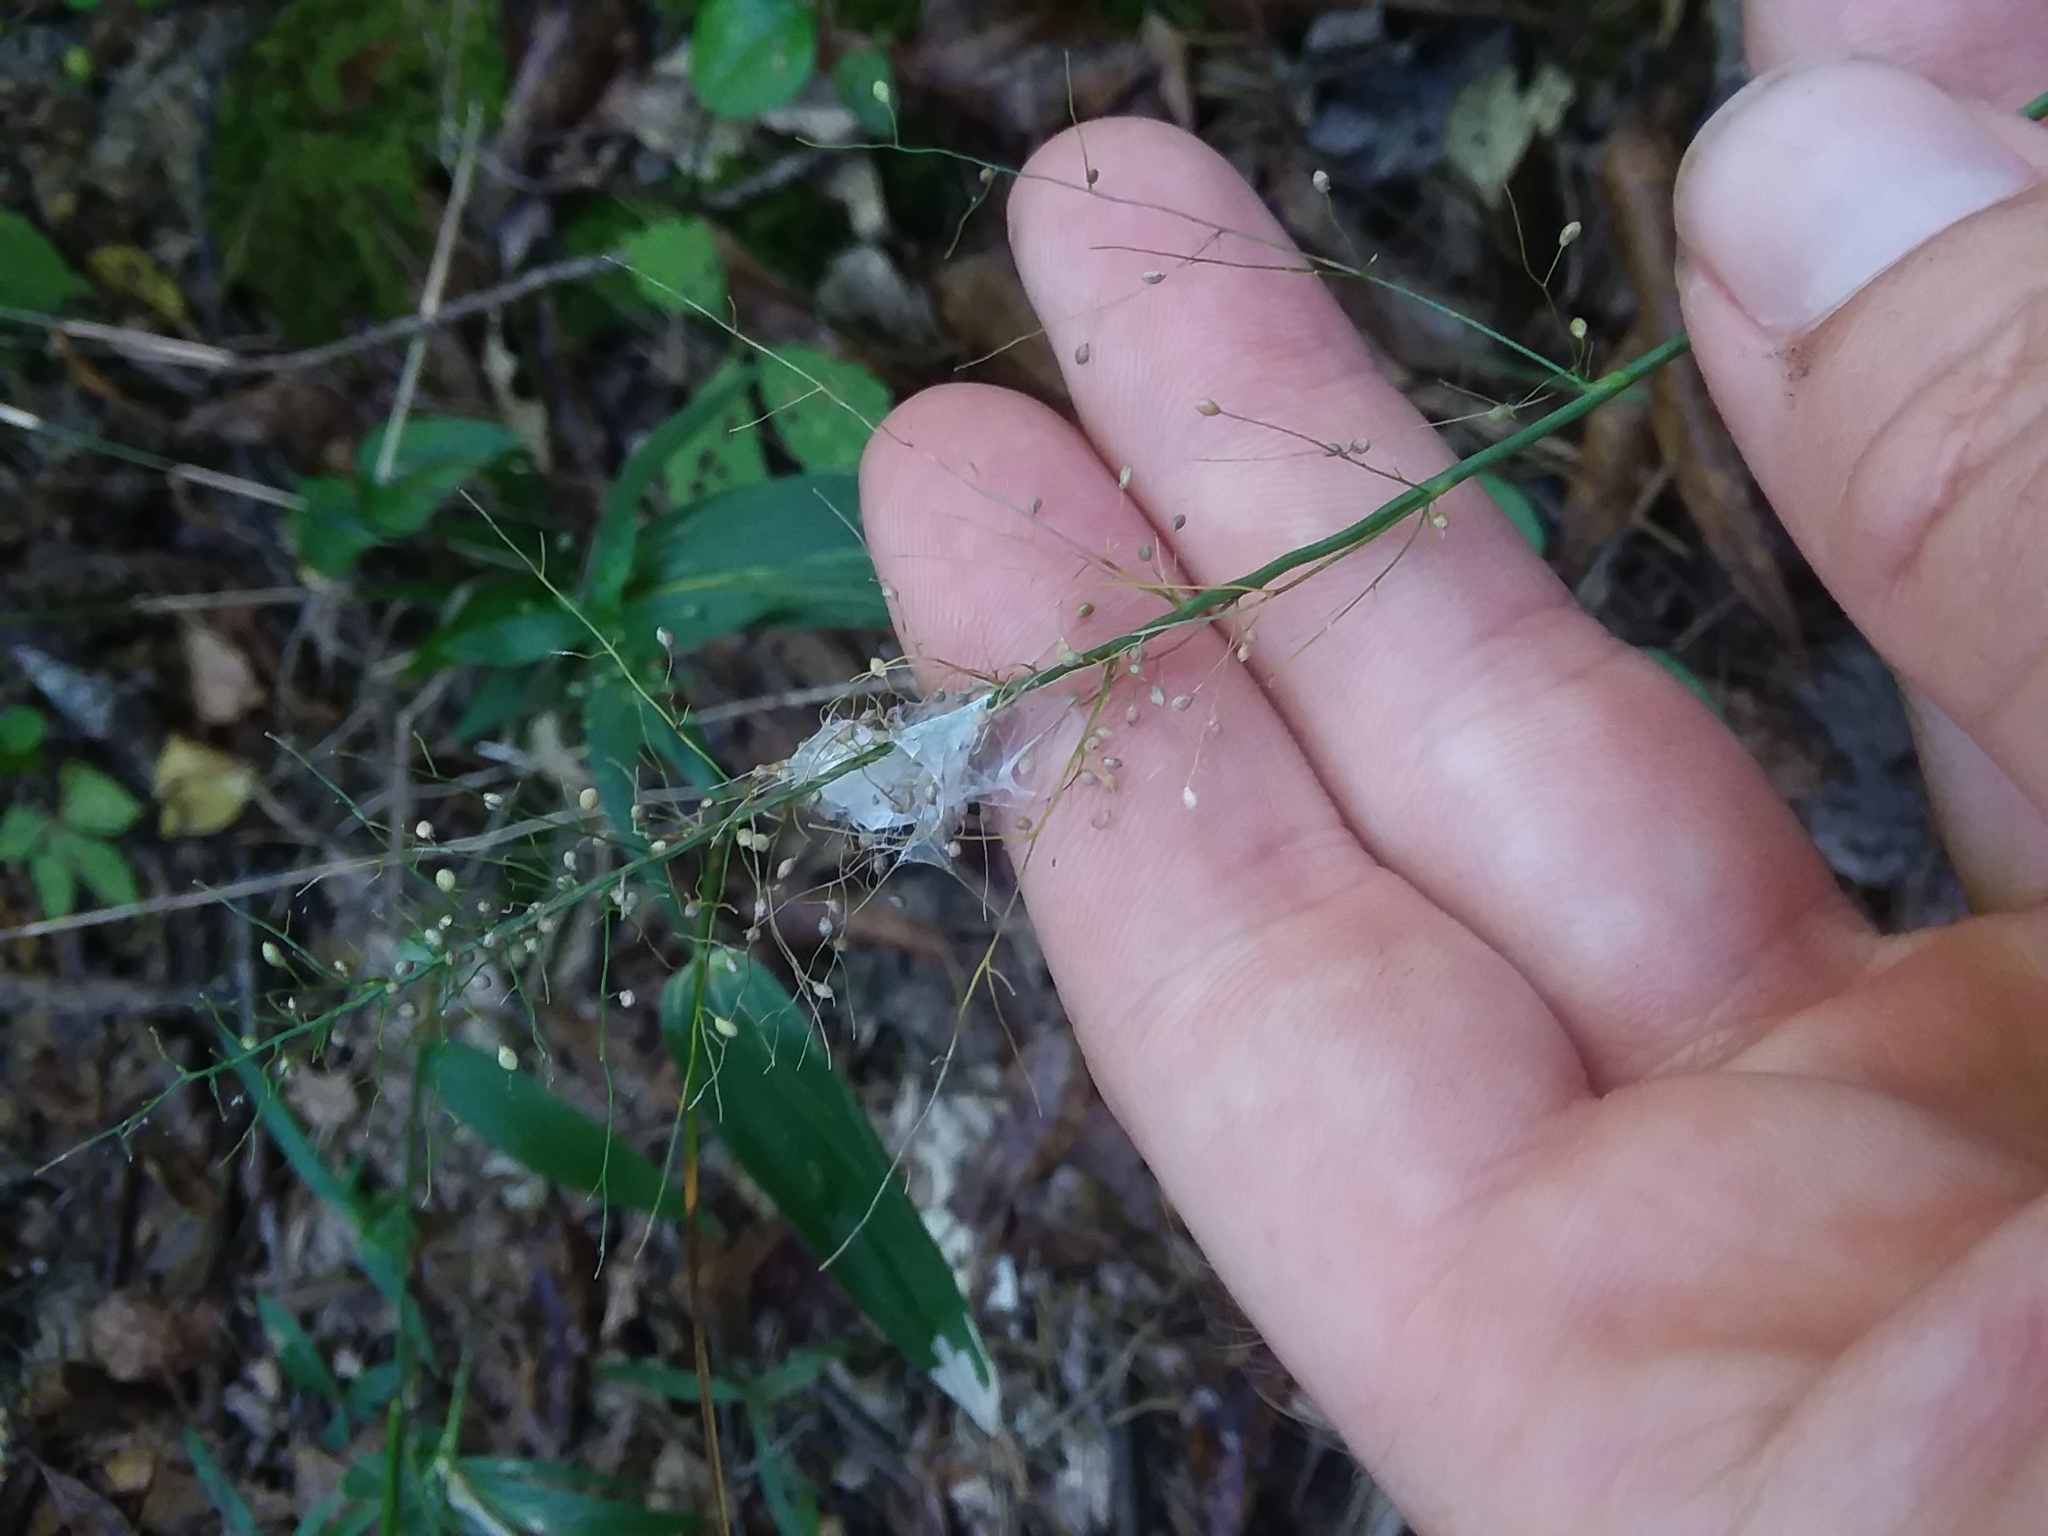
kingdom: Plantae
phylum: Tracheophyta
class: Liliopsida
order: Poales
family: Poaceae
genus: Dichanthelium
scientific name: Dichanthelium polyanthes
